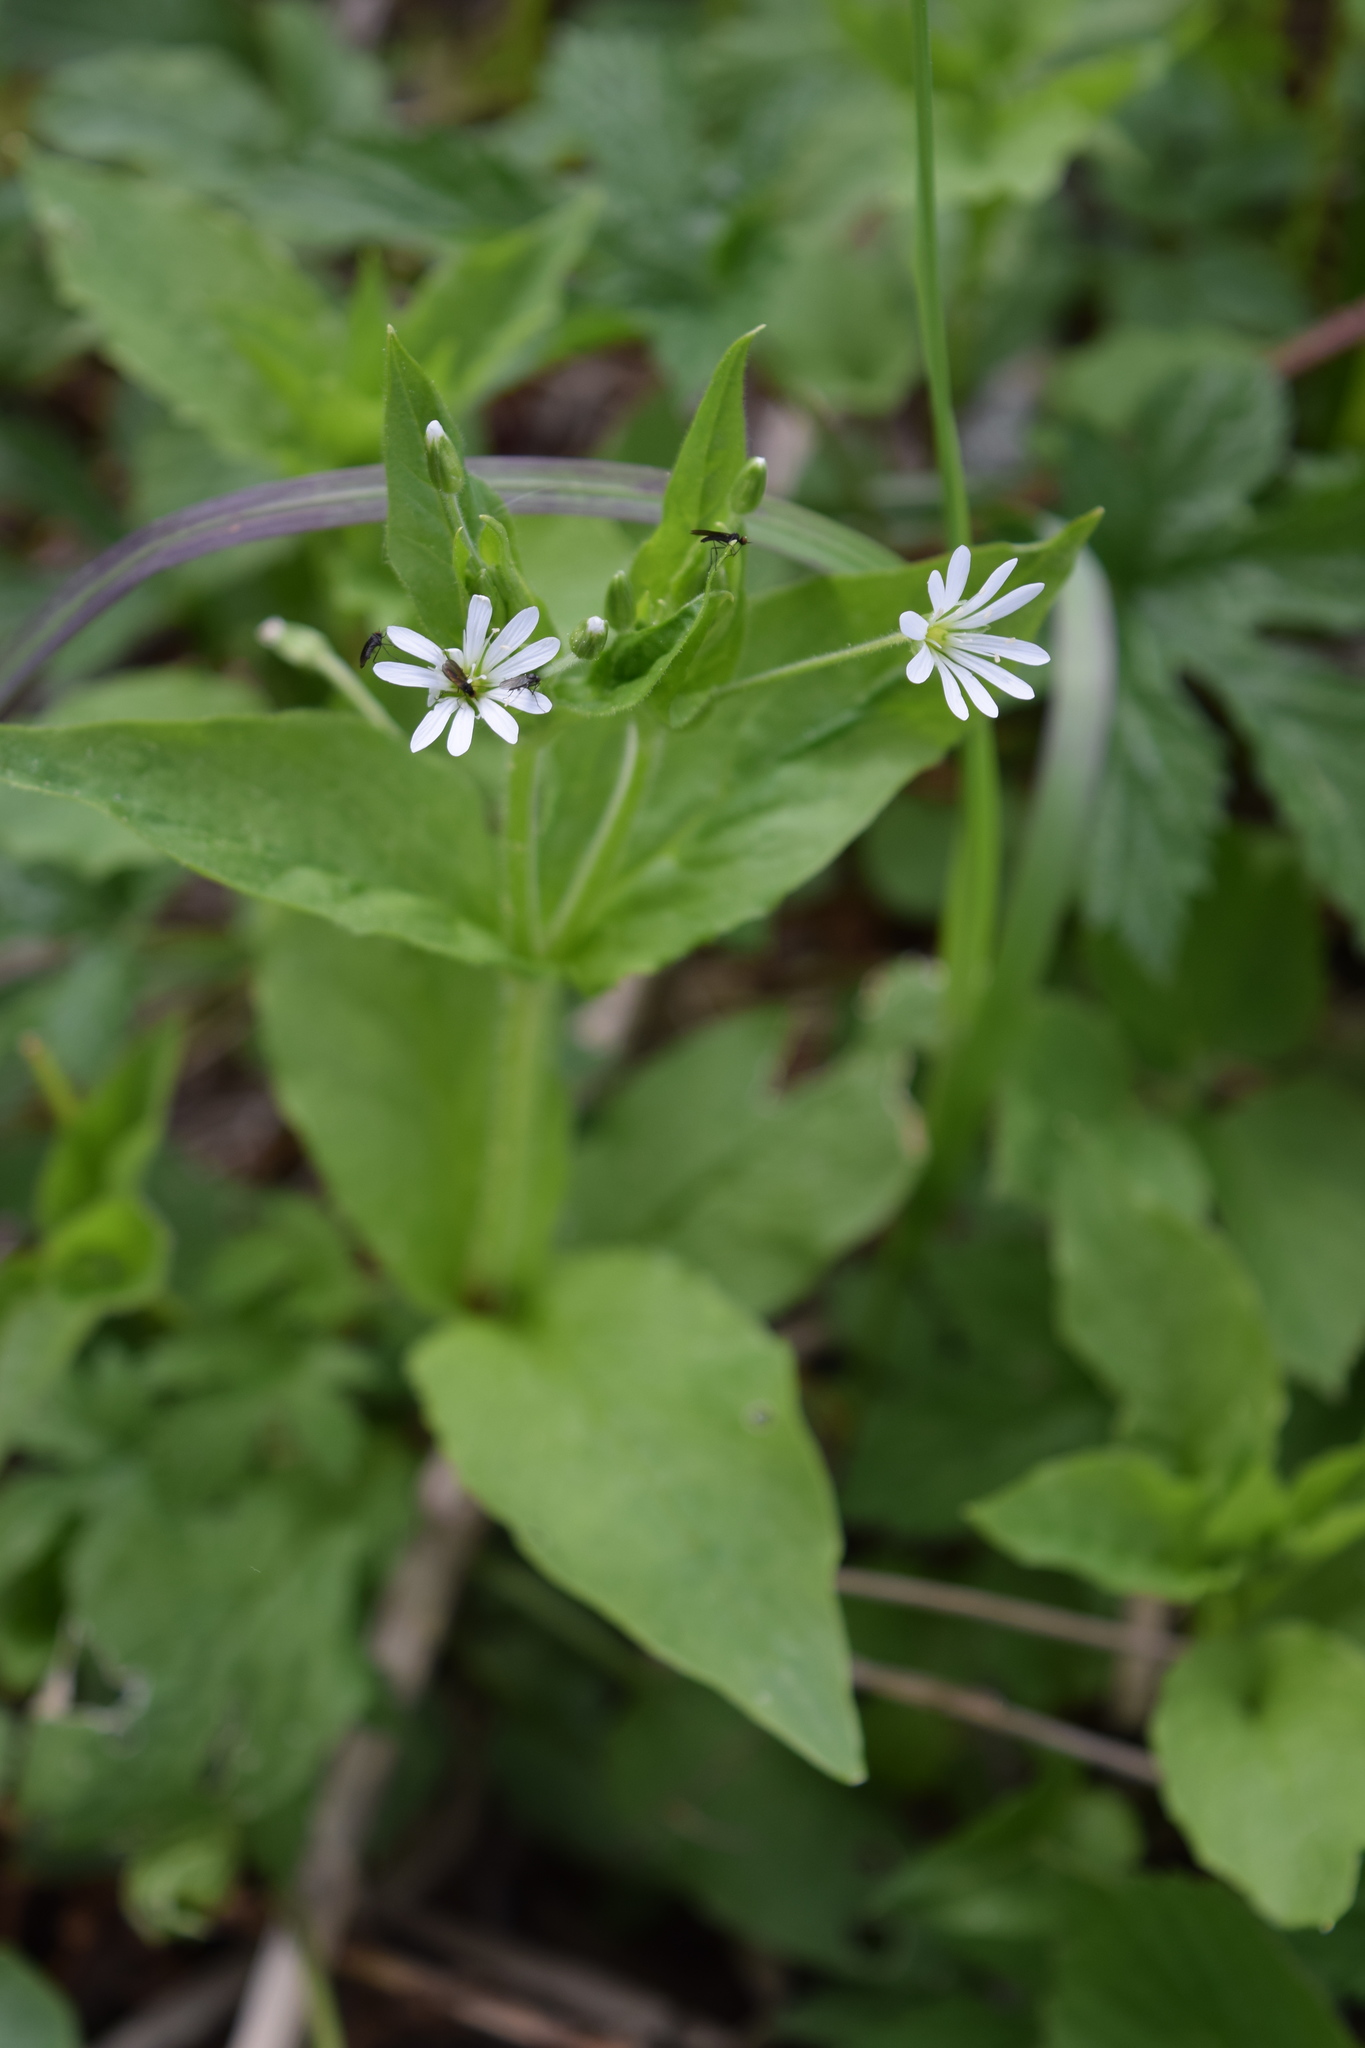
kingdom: Plantae
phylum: Tracheophyta
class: Magnoliopsida
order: Caryophyllales
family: Caryophyllaceae
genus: Stellaria
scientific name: Stellaria nemorum
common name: Wood stitchwort
